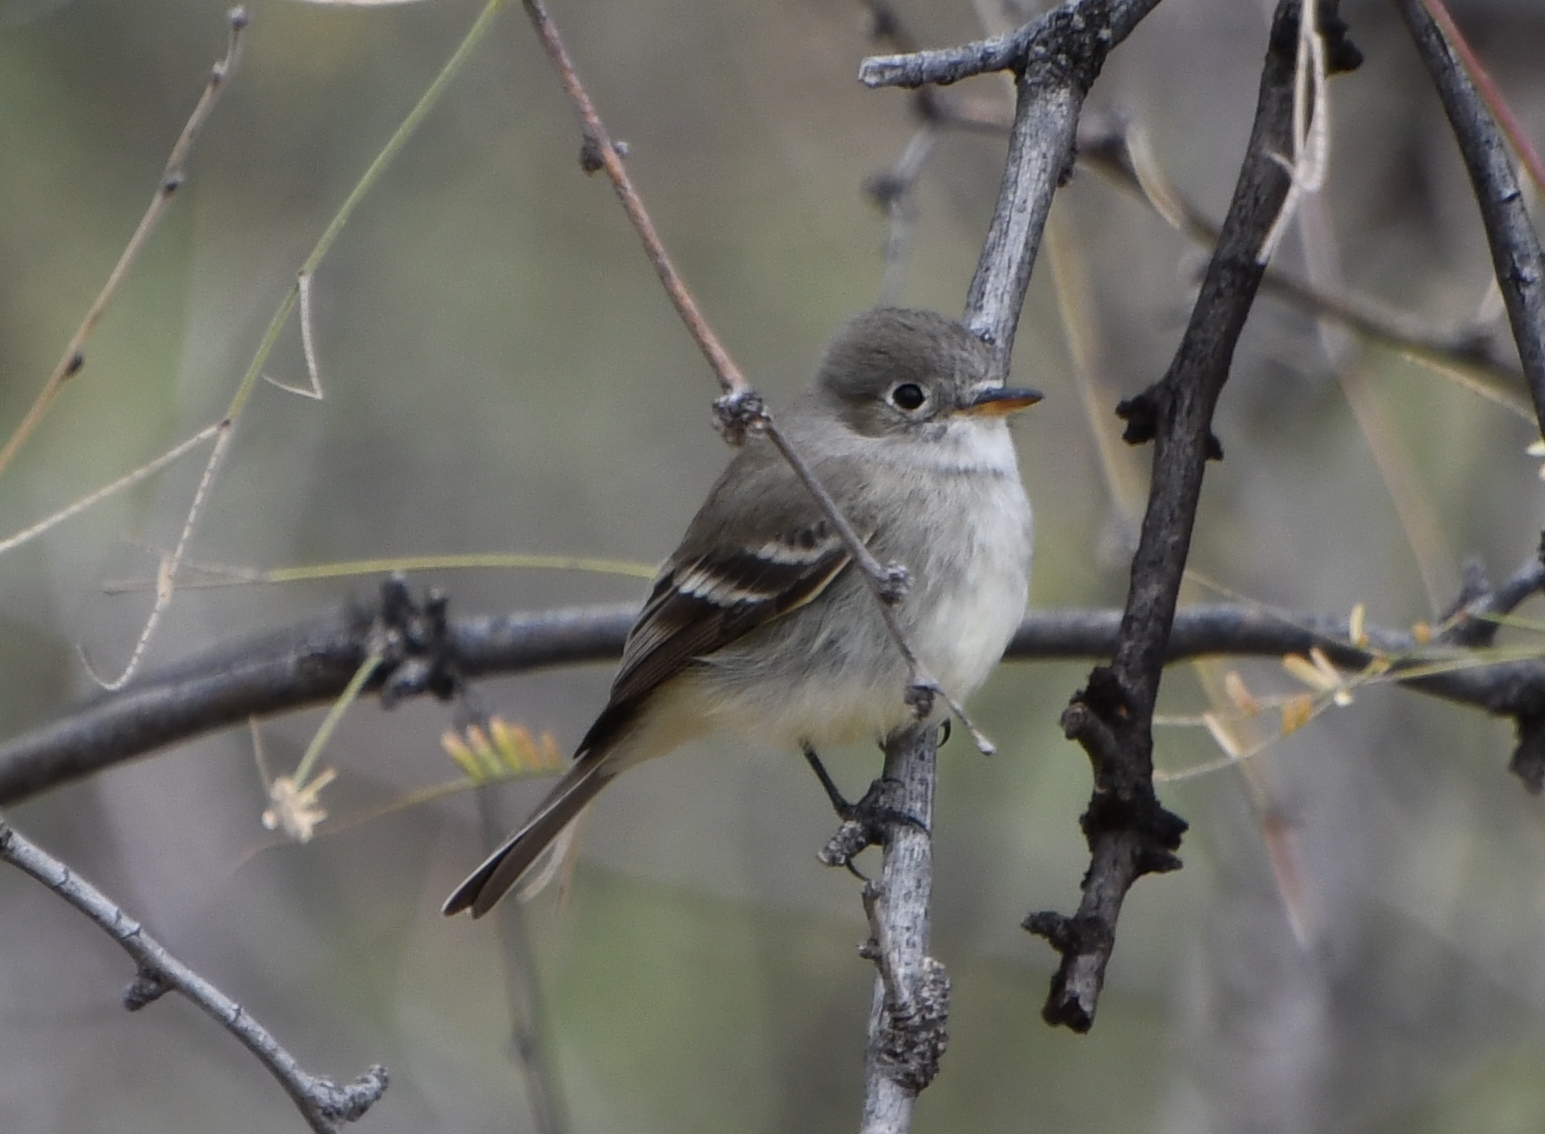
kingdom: Animalia
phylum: Chordata
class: Aves
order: Passeriformes
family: Tyrannidae
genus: Empidonax
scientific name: Empidonax wrightii
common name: Gray flycatcher
